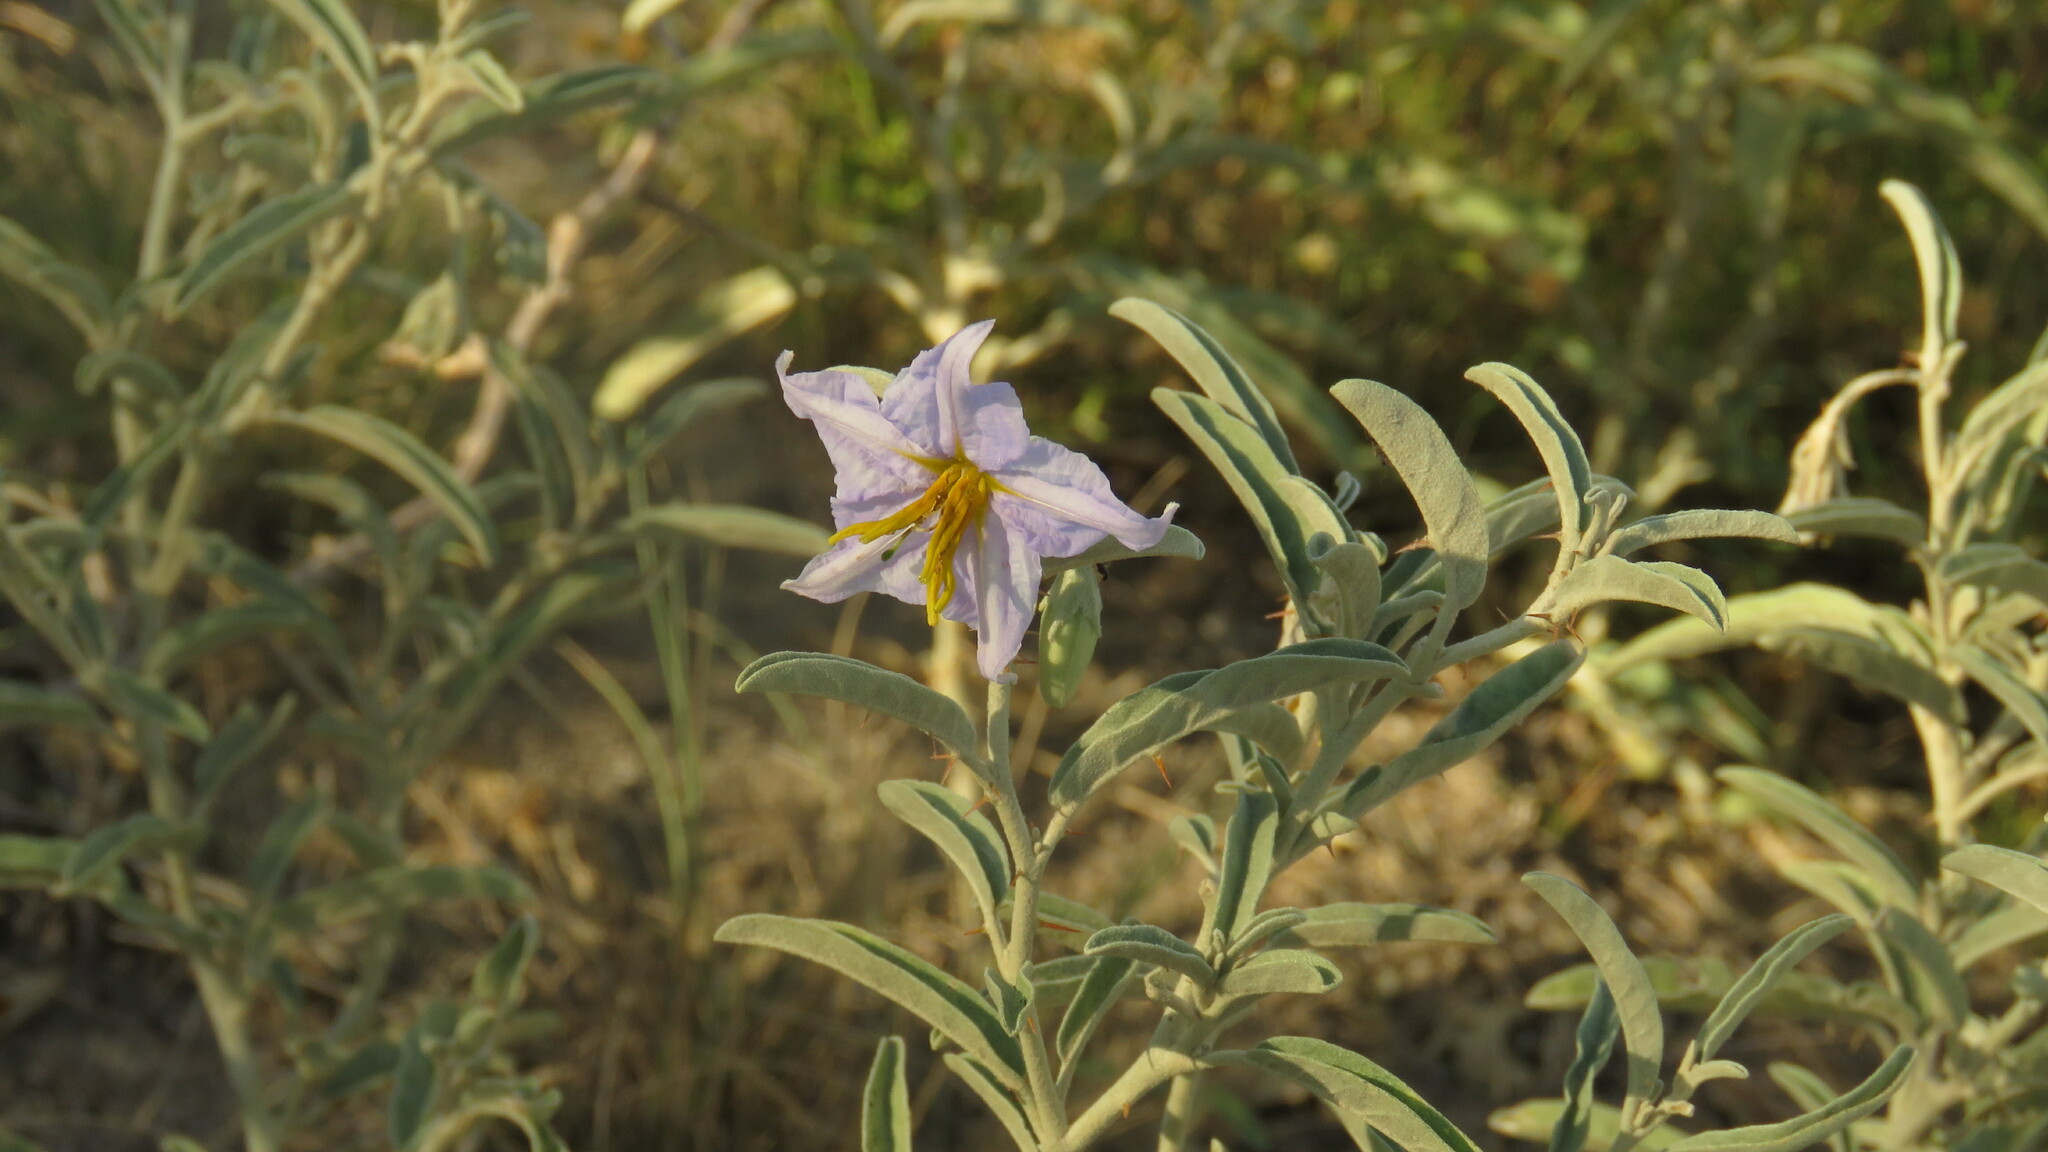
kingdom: Plantae
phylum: Tracheophyta
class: Magnoliopsida
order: Solanales
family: Solanaceae
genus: Solanum
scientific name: Solanum elaeagnifolium
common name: Silverleaf nightshade
